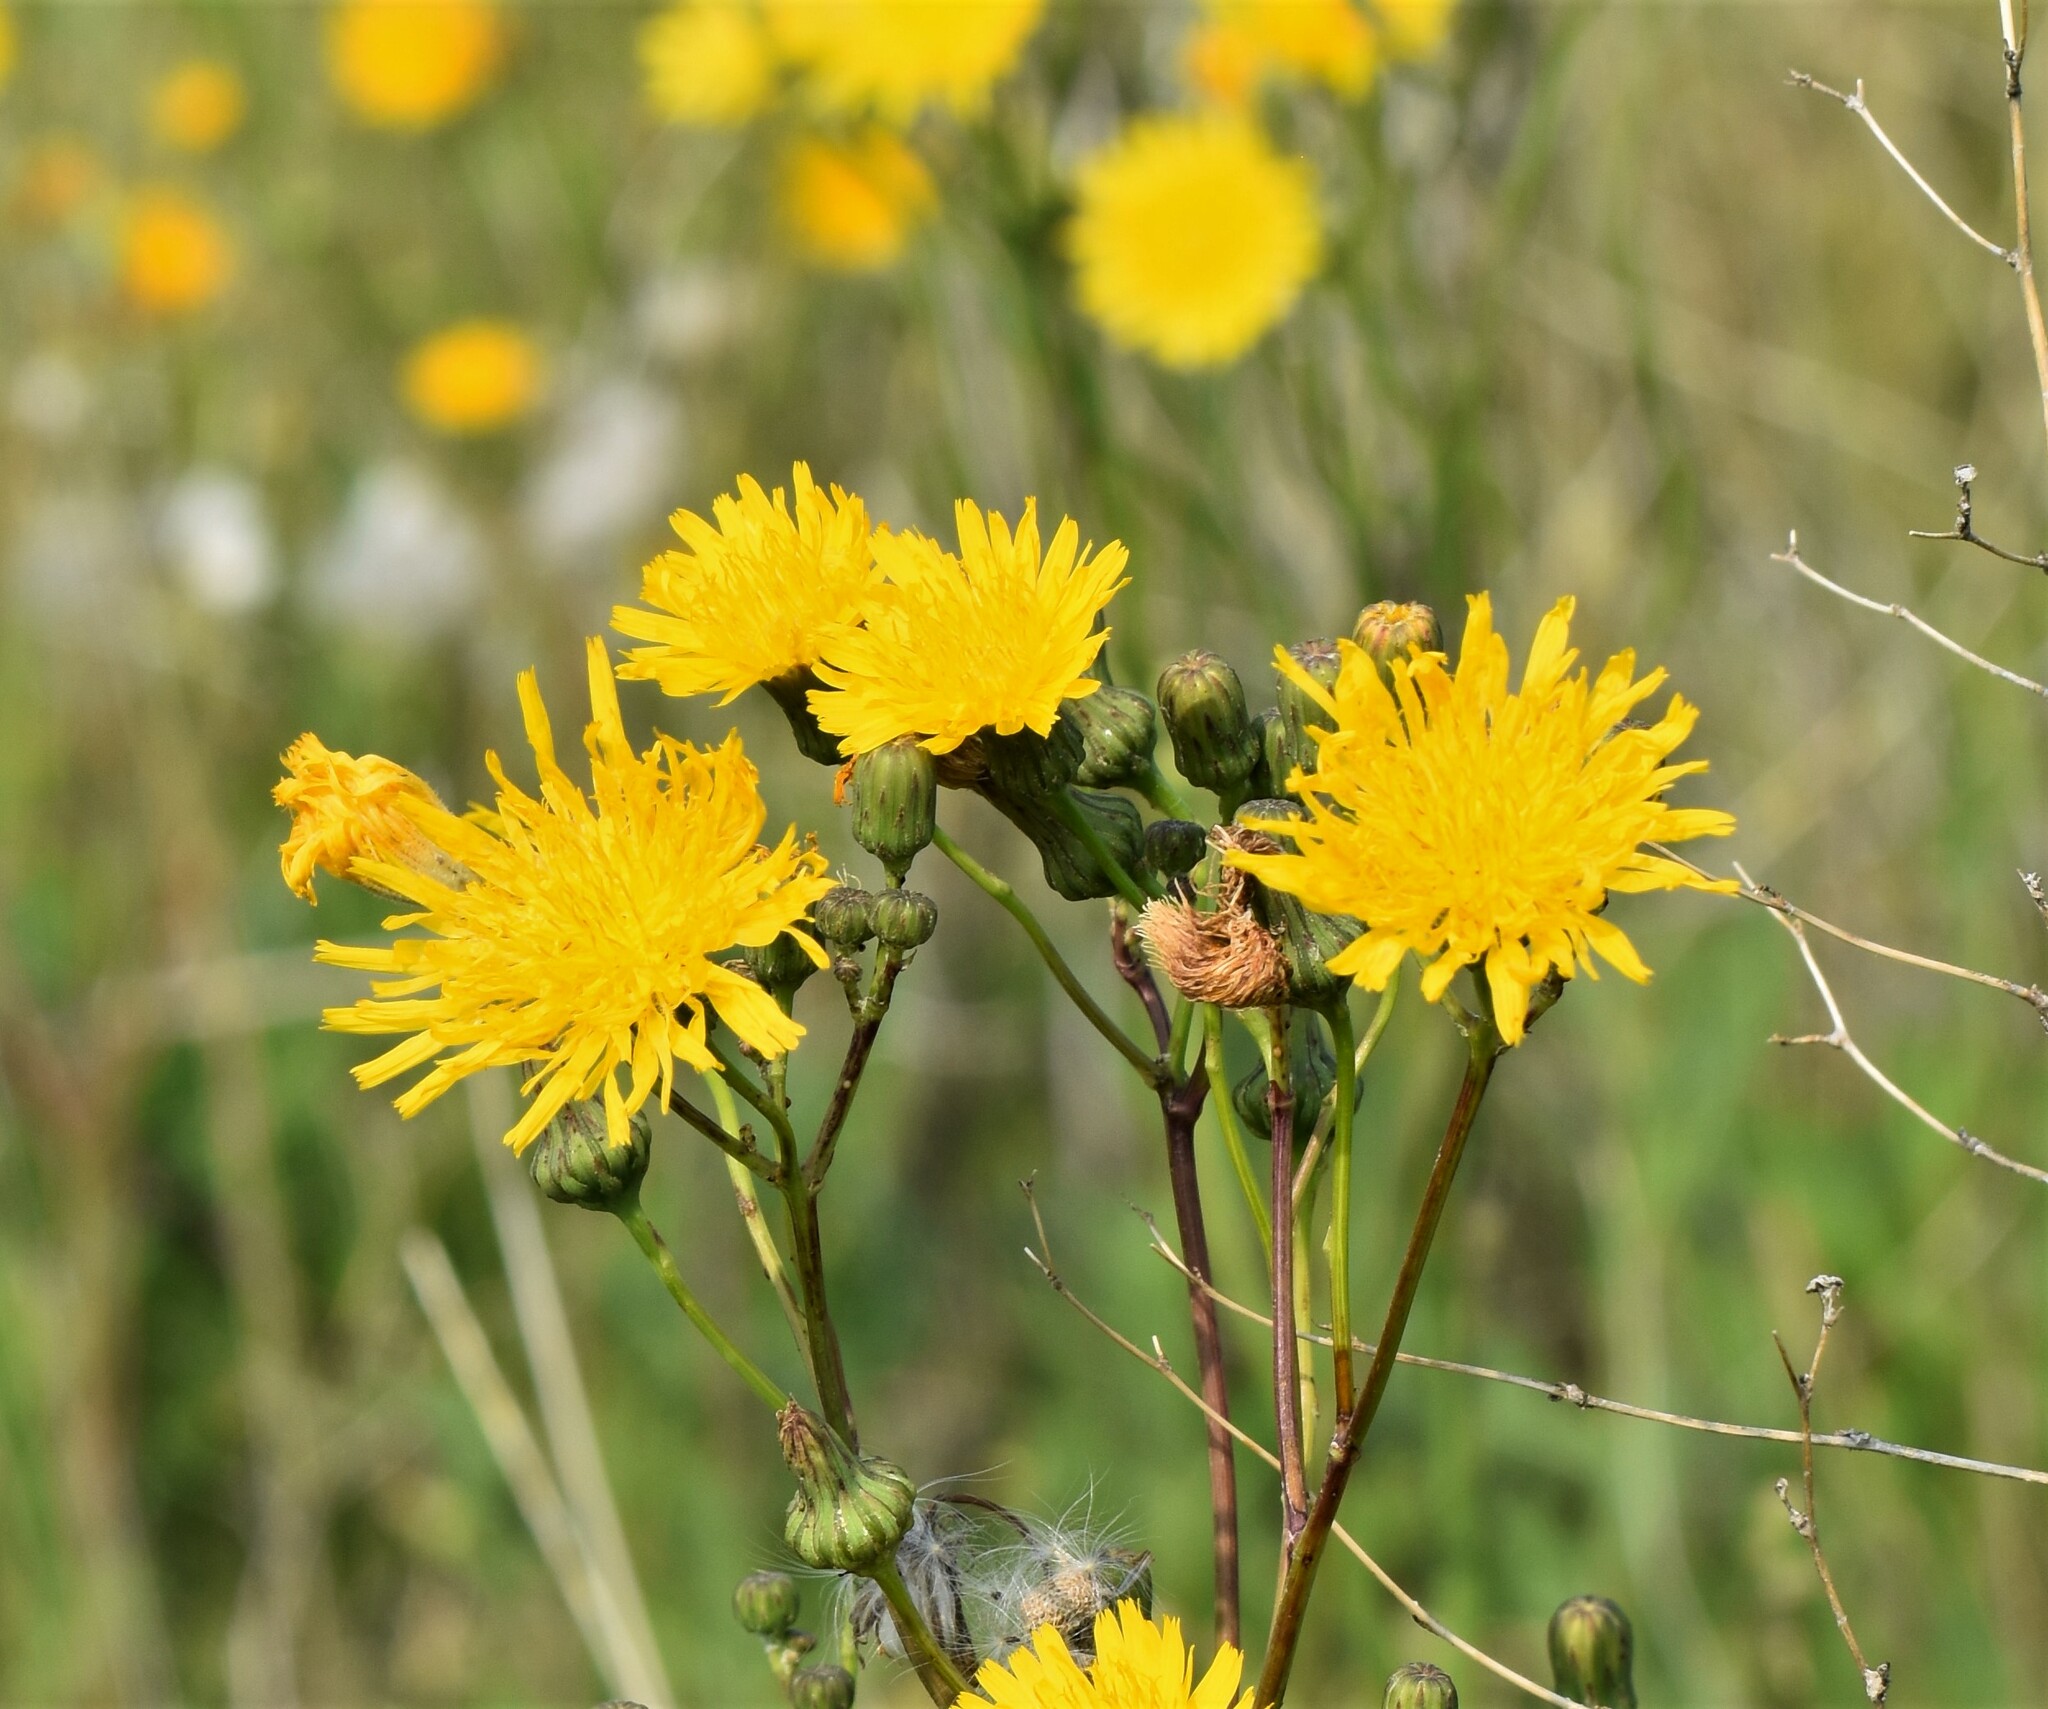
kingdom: Plantae
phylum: Tracheophyta
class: Magnoliopsida
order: Asterales
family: Asteraceae
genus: Sonchus
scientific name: Sonchus arvensis
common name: Perennial sow-thistle
